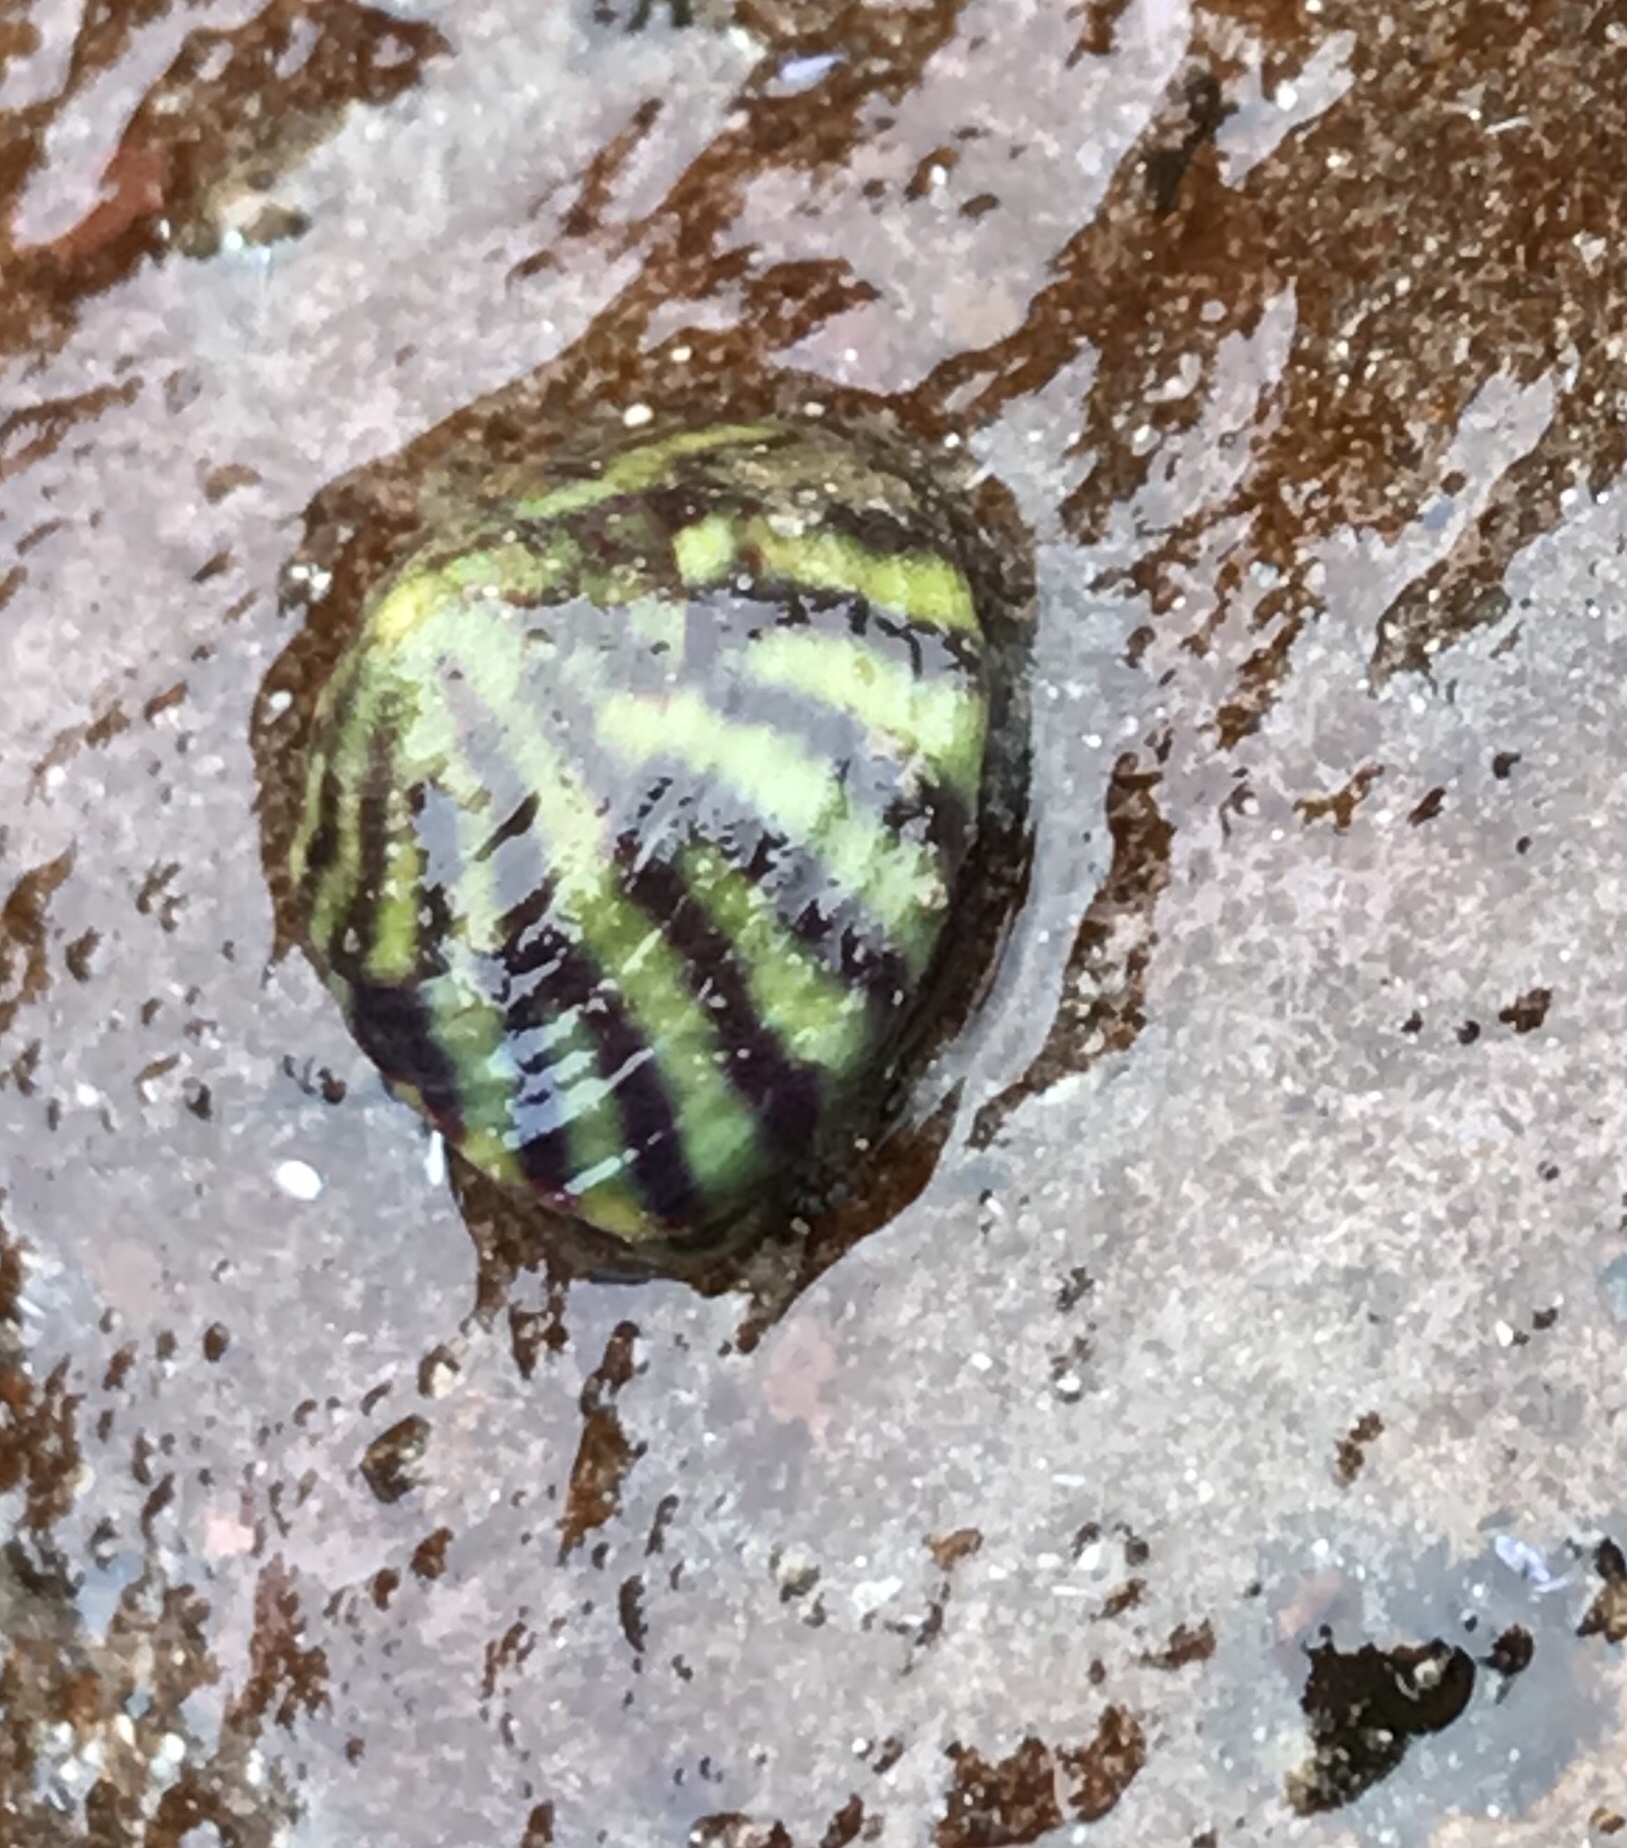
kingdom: Animalia
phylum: Mollusca
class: Gastropoda
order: Trochida
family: Trochidae
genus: Steromphala
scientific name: Steromphala umbilicalis
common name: Flat top shell
